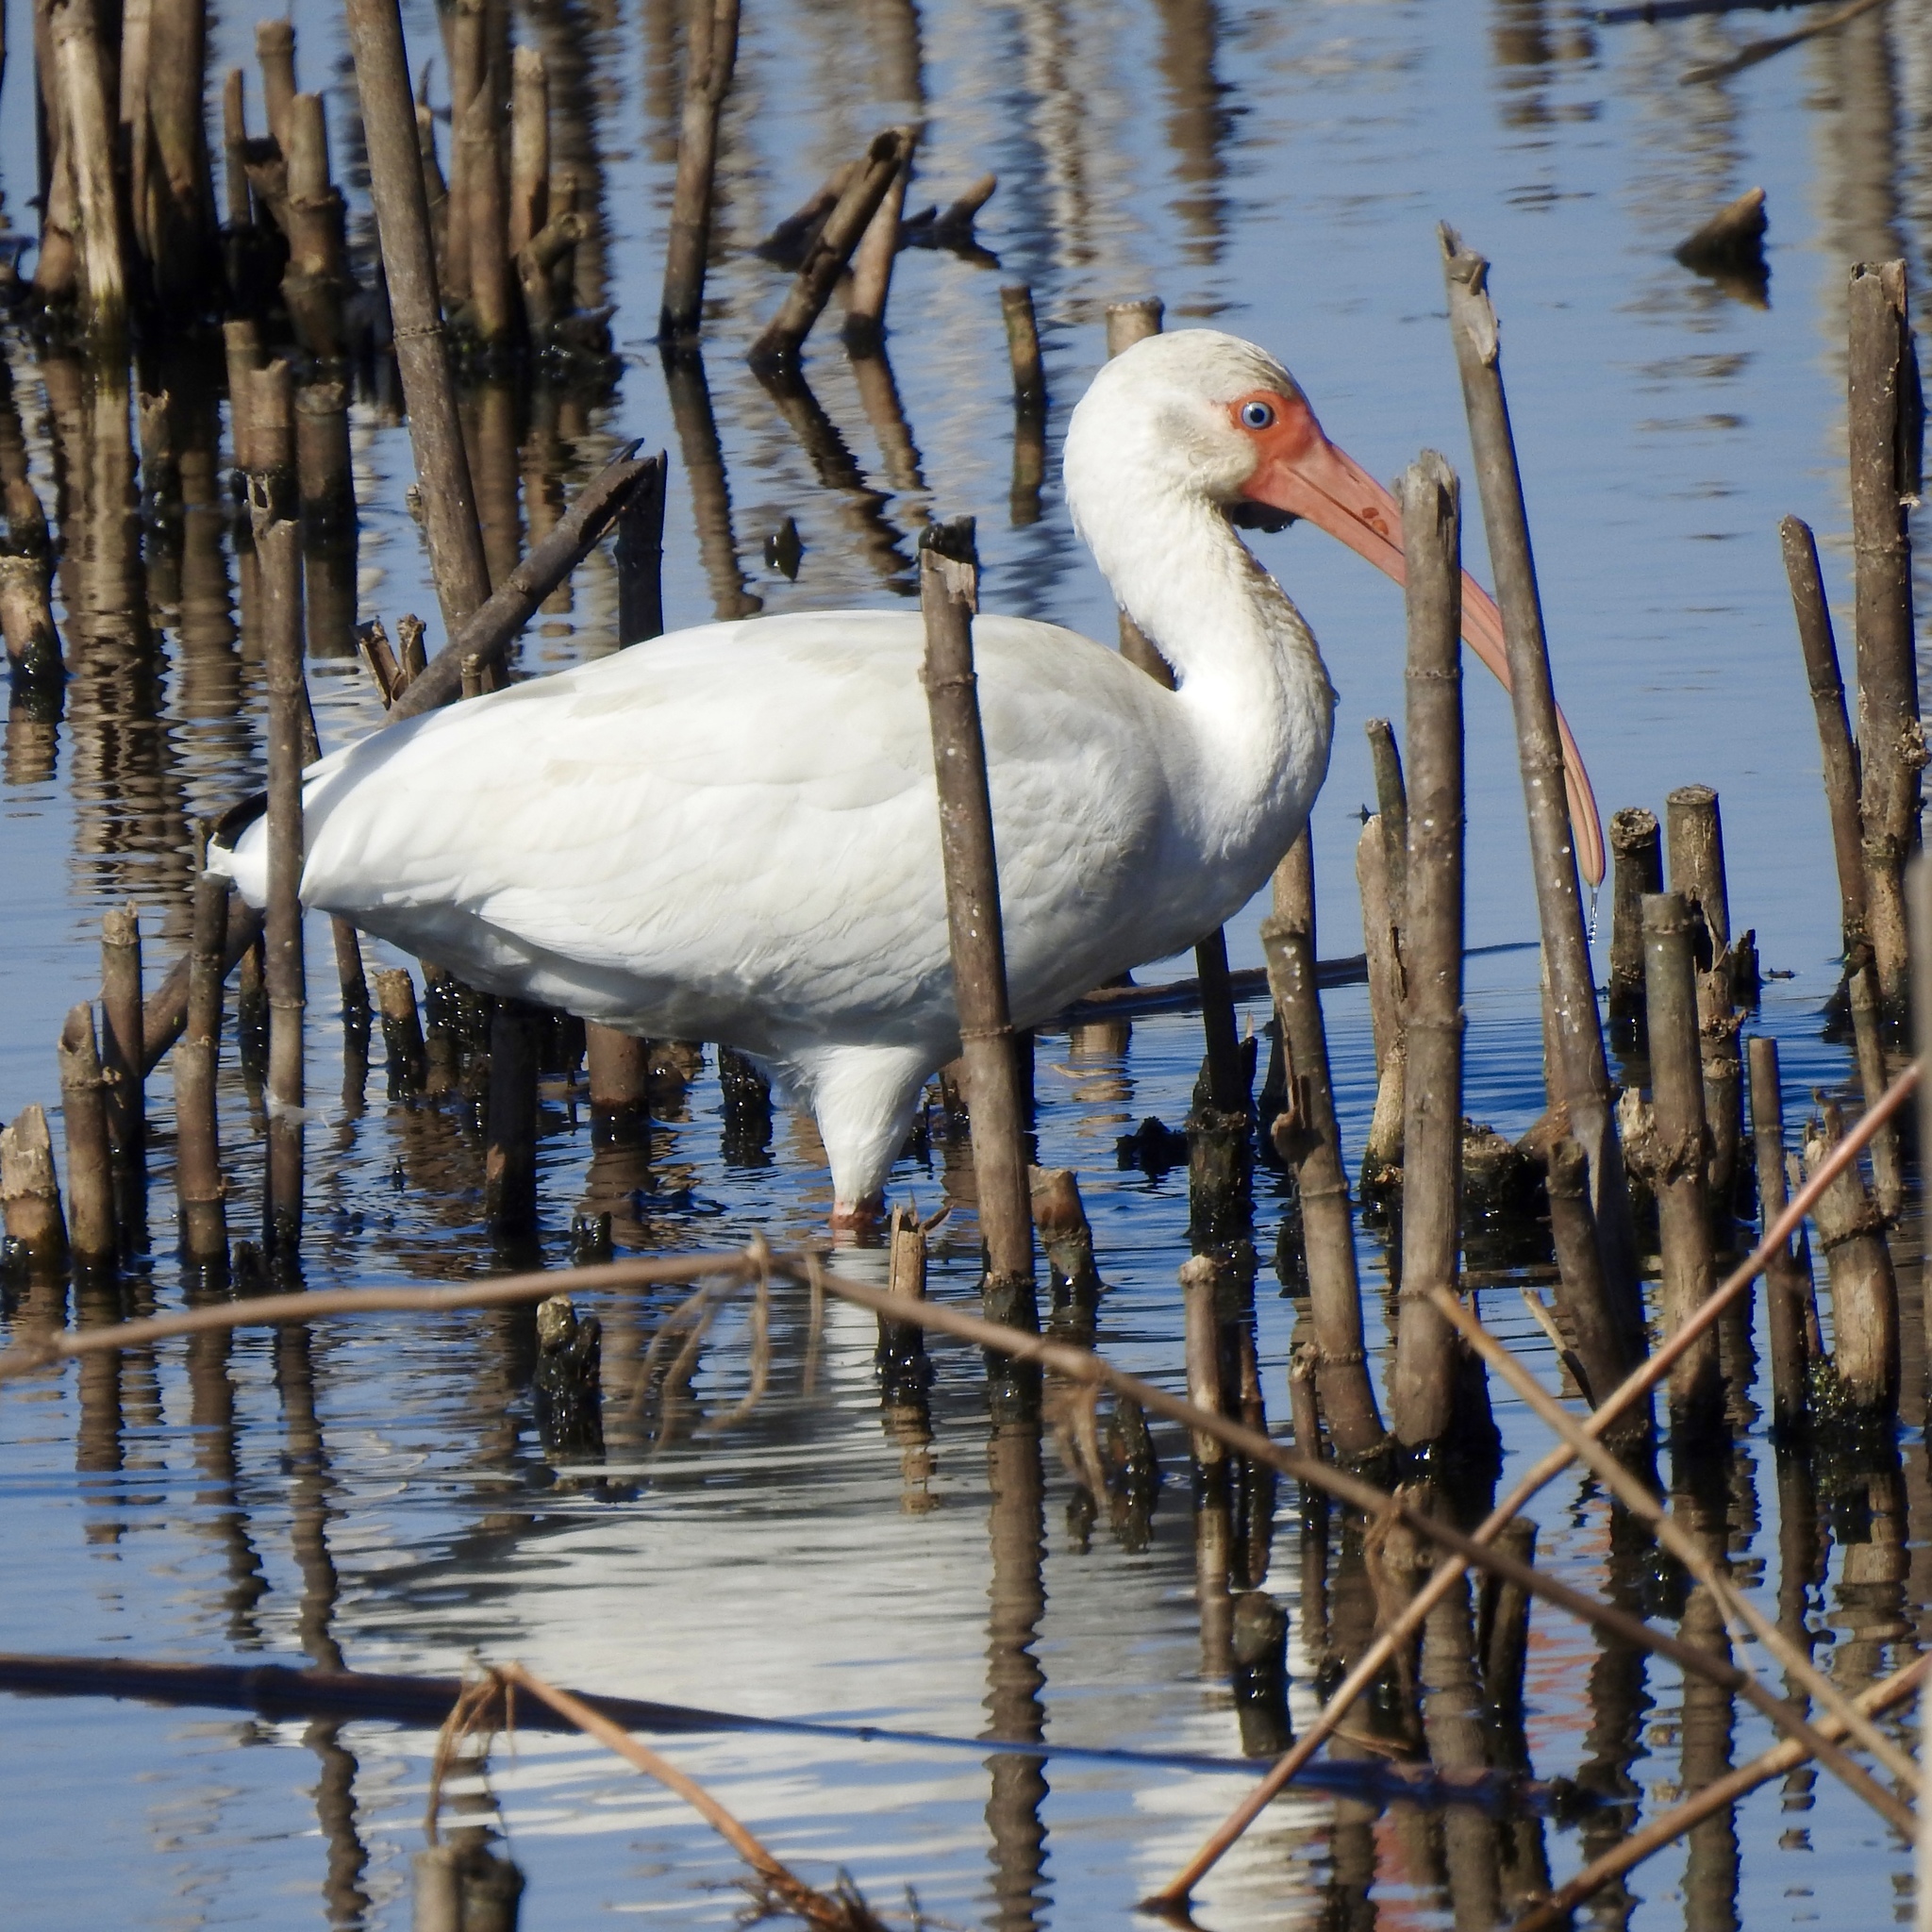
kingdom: Animalia
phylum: Chordata
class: Aves
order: Pelecaniformes
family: Threskiornithidae
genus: Eudocimus
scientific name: Eudocimus albus
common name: White ibis
